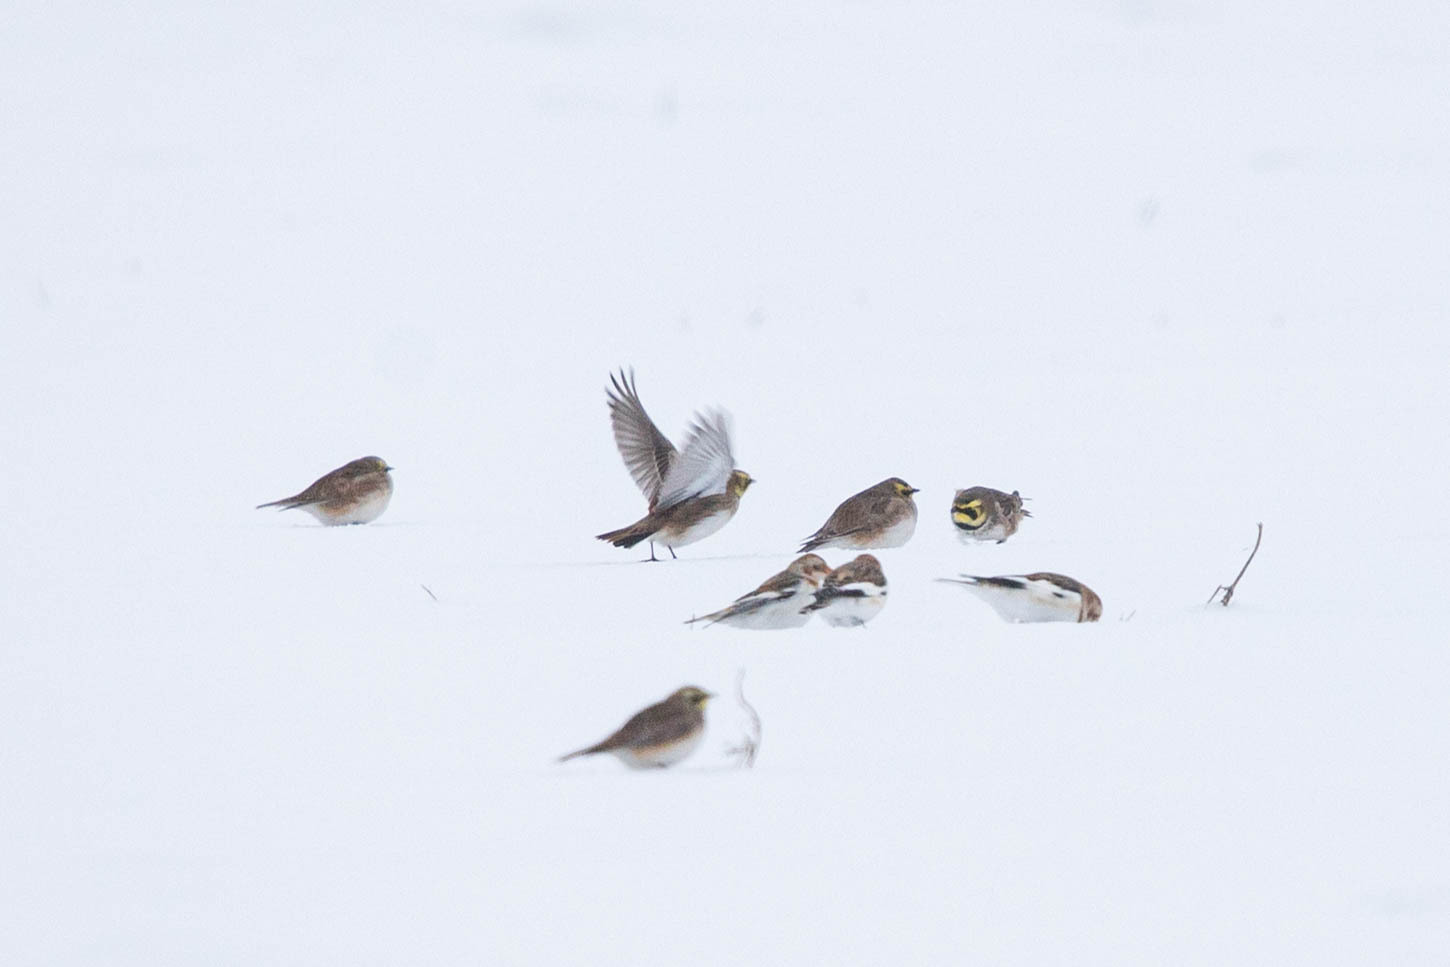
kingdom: Animalia
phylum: Chordata
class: Aves
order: Passeriformes
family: Calcariidae
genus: Plectrophenax
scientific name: Plectrophenax nivalis
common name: Snow bunting
